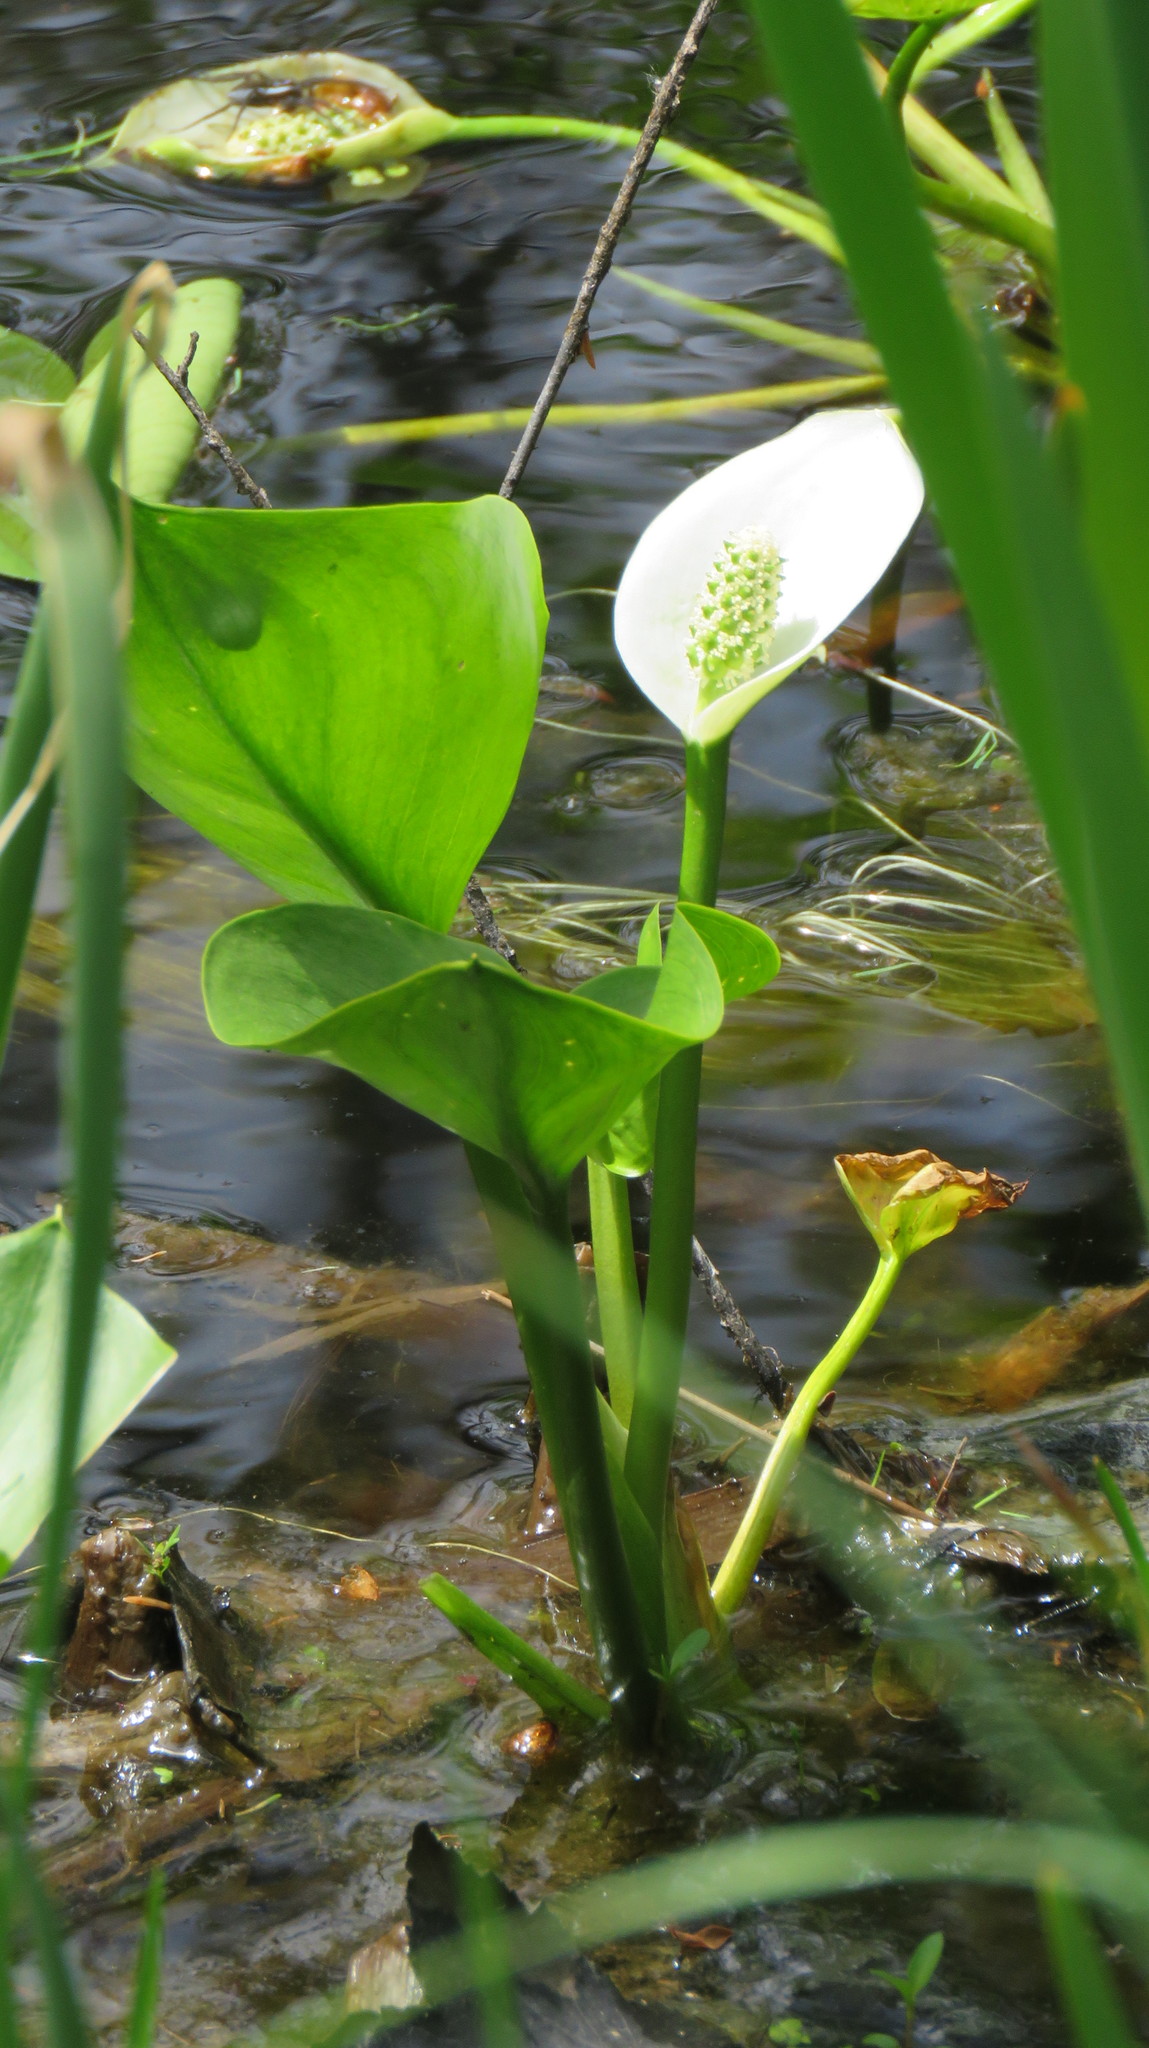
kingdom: Plantae
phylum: Tracheophyta
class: Liliopsida
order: Alismatales
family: Araceae
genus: Calla
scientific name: Calla palustris
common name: Bog arum
